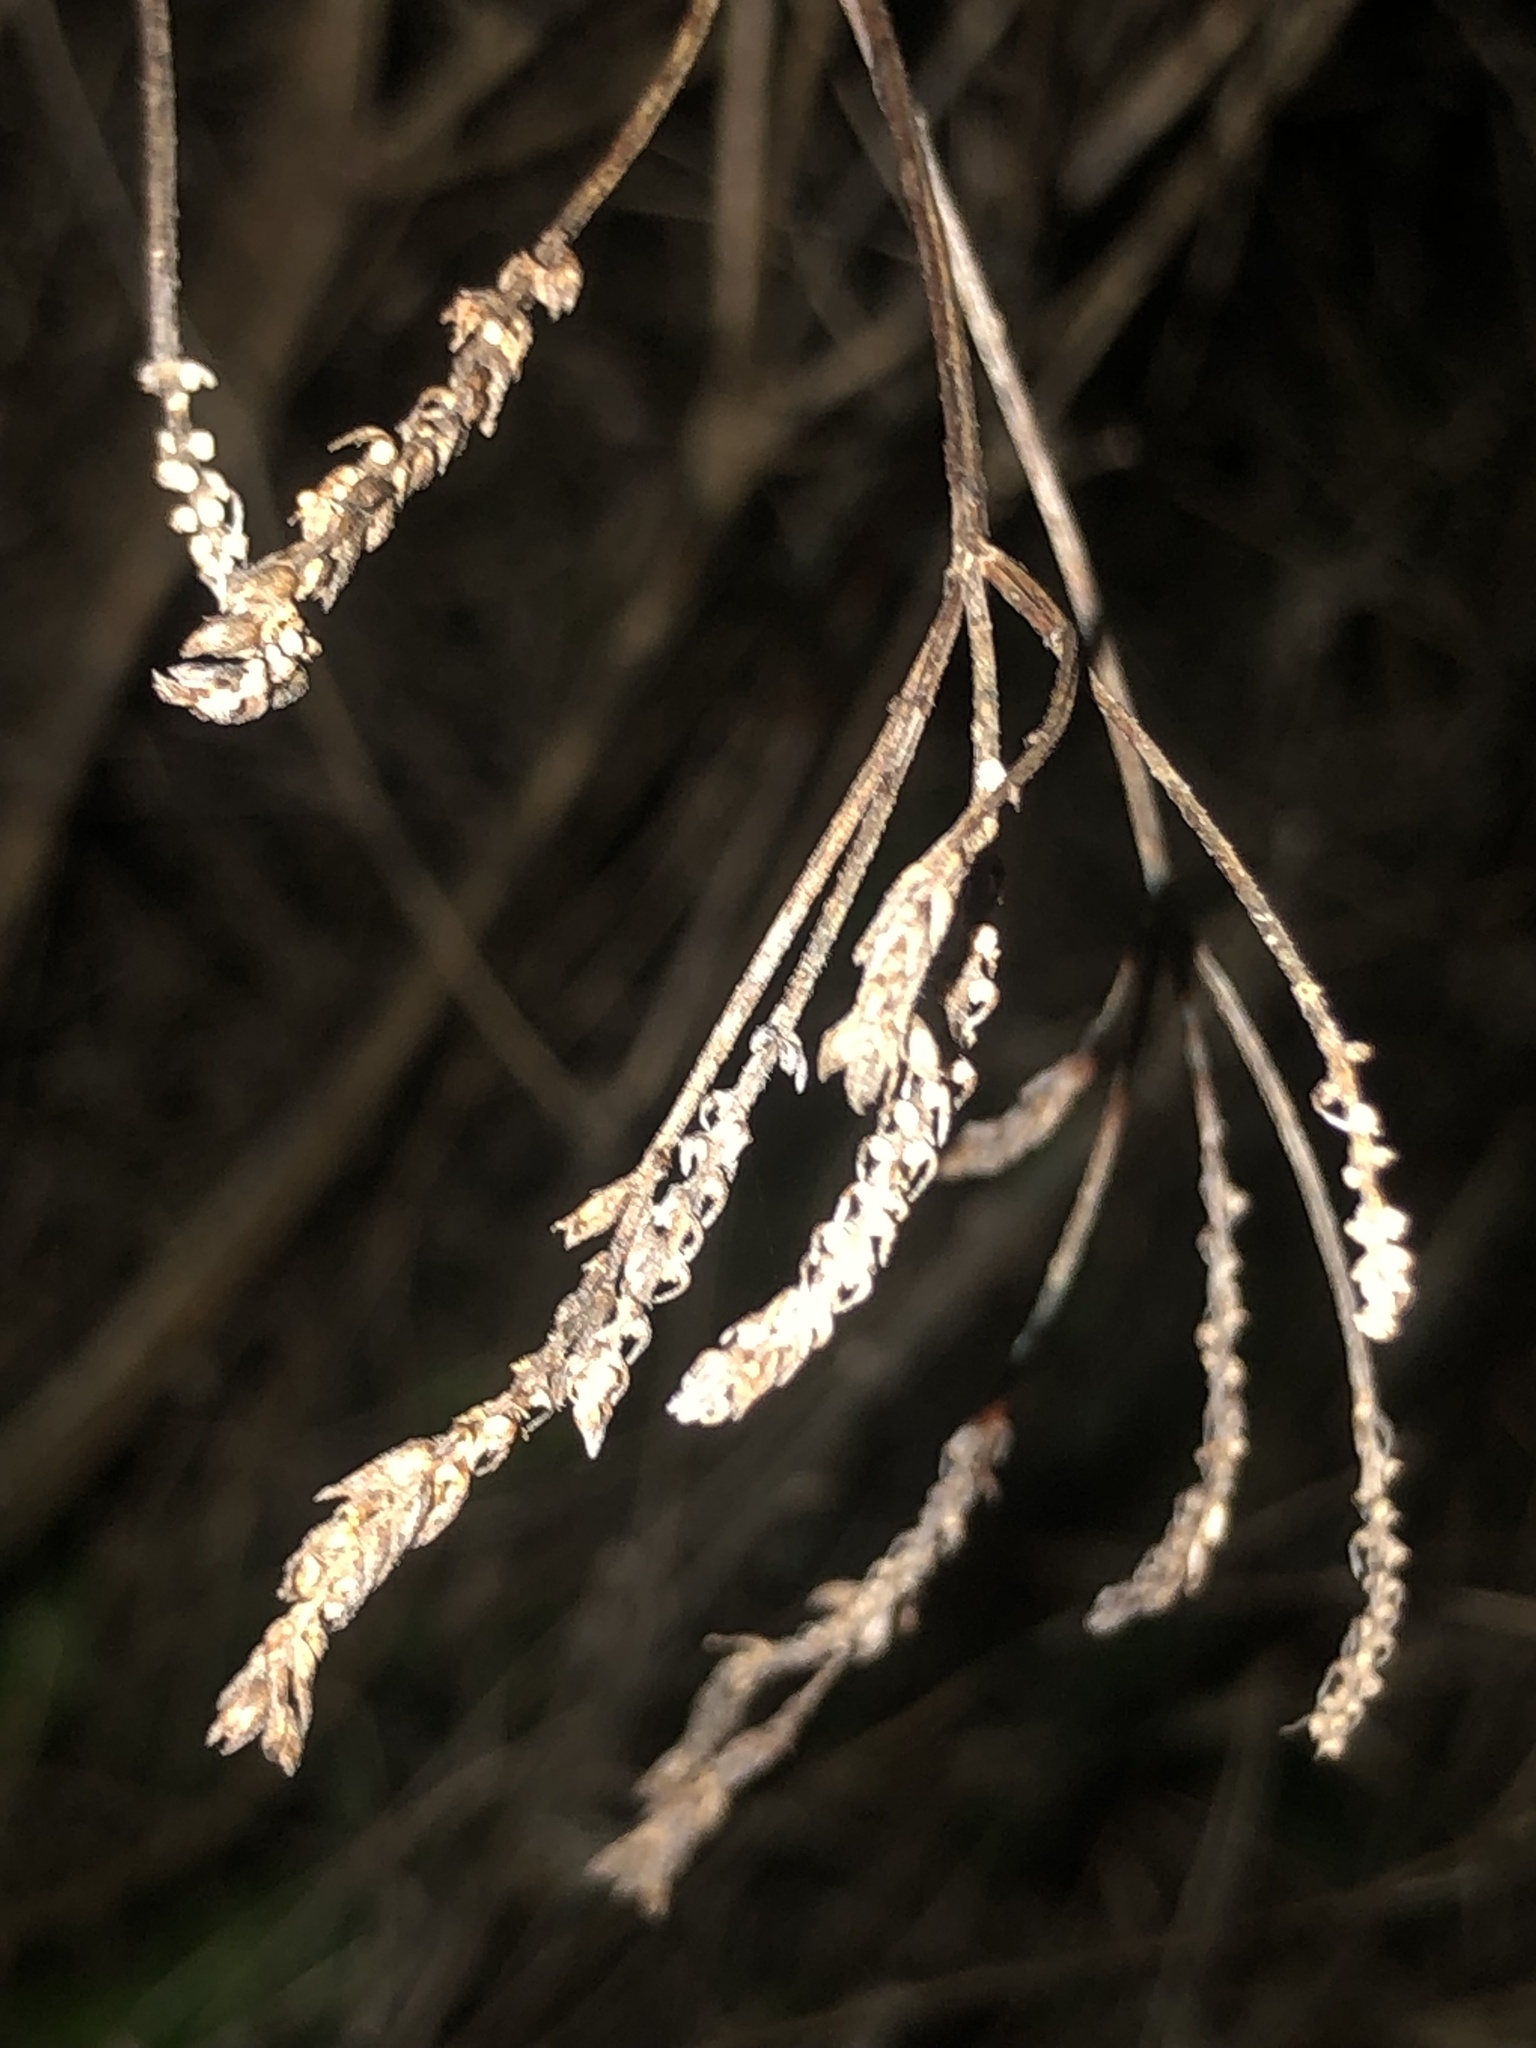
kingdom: Plantae
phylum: Tracheophyta
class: Magnoliopsida
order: Lamiales
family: Verbenaceae
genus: Verbena
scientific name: Verbena brasiliensis
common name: Brazilian vervain
